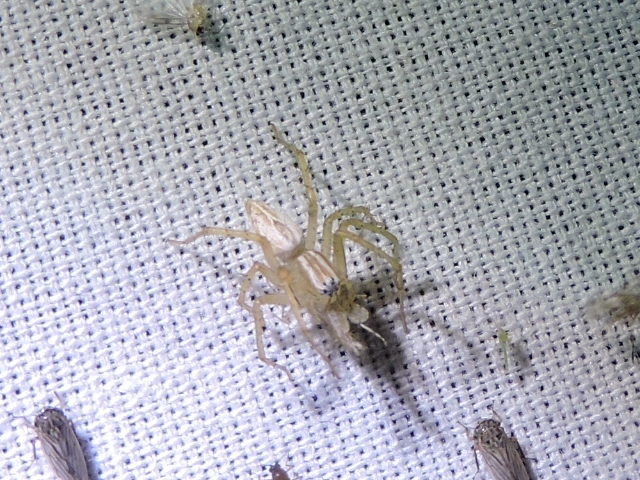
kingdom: Animalia
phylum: Arthropoda
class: Arachnida
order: Araneae
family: Oxyopidae
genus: Oxyopes
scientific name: Oxyopes salticus
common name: Lynx spiders
